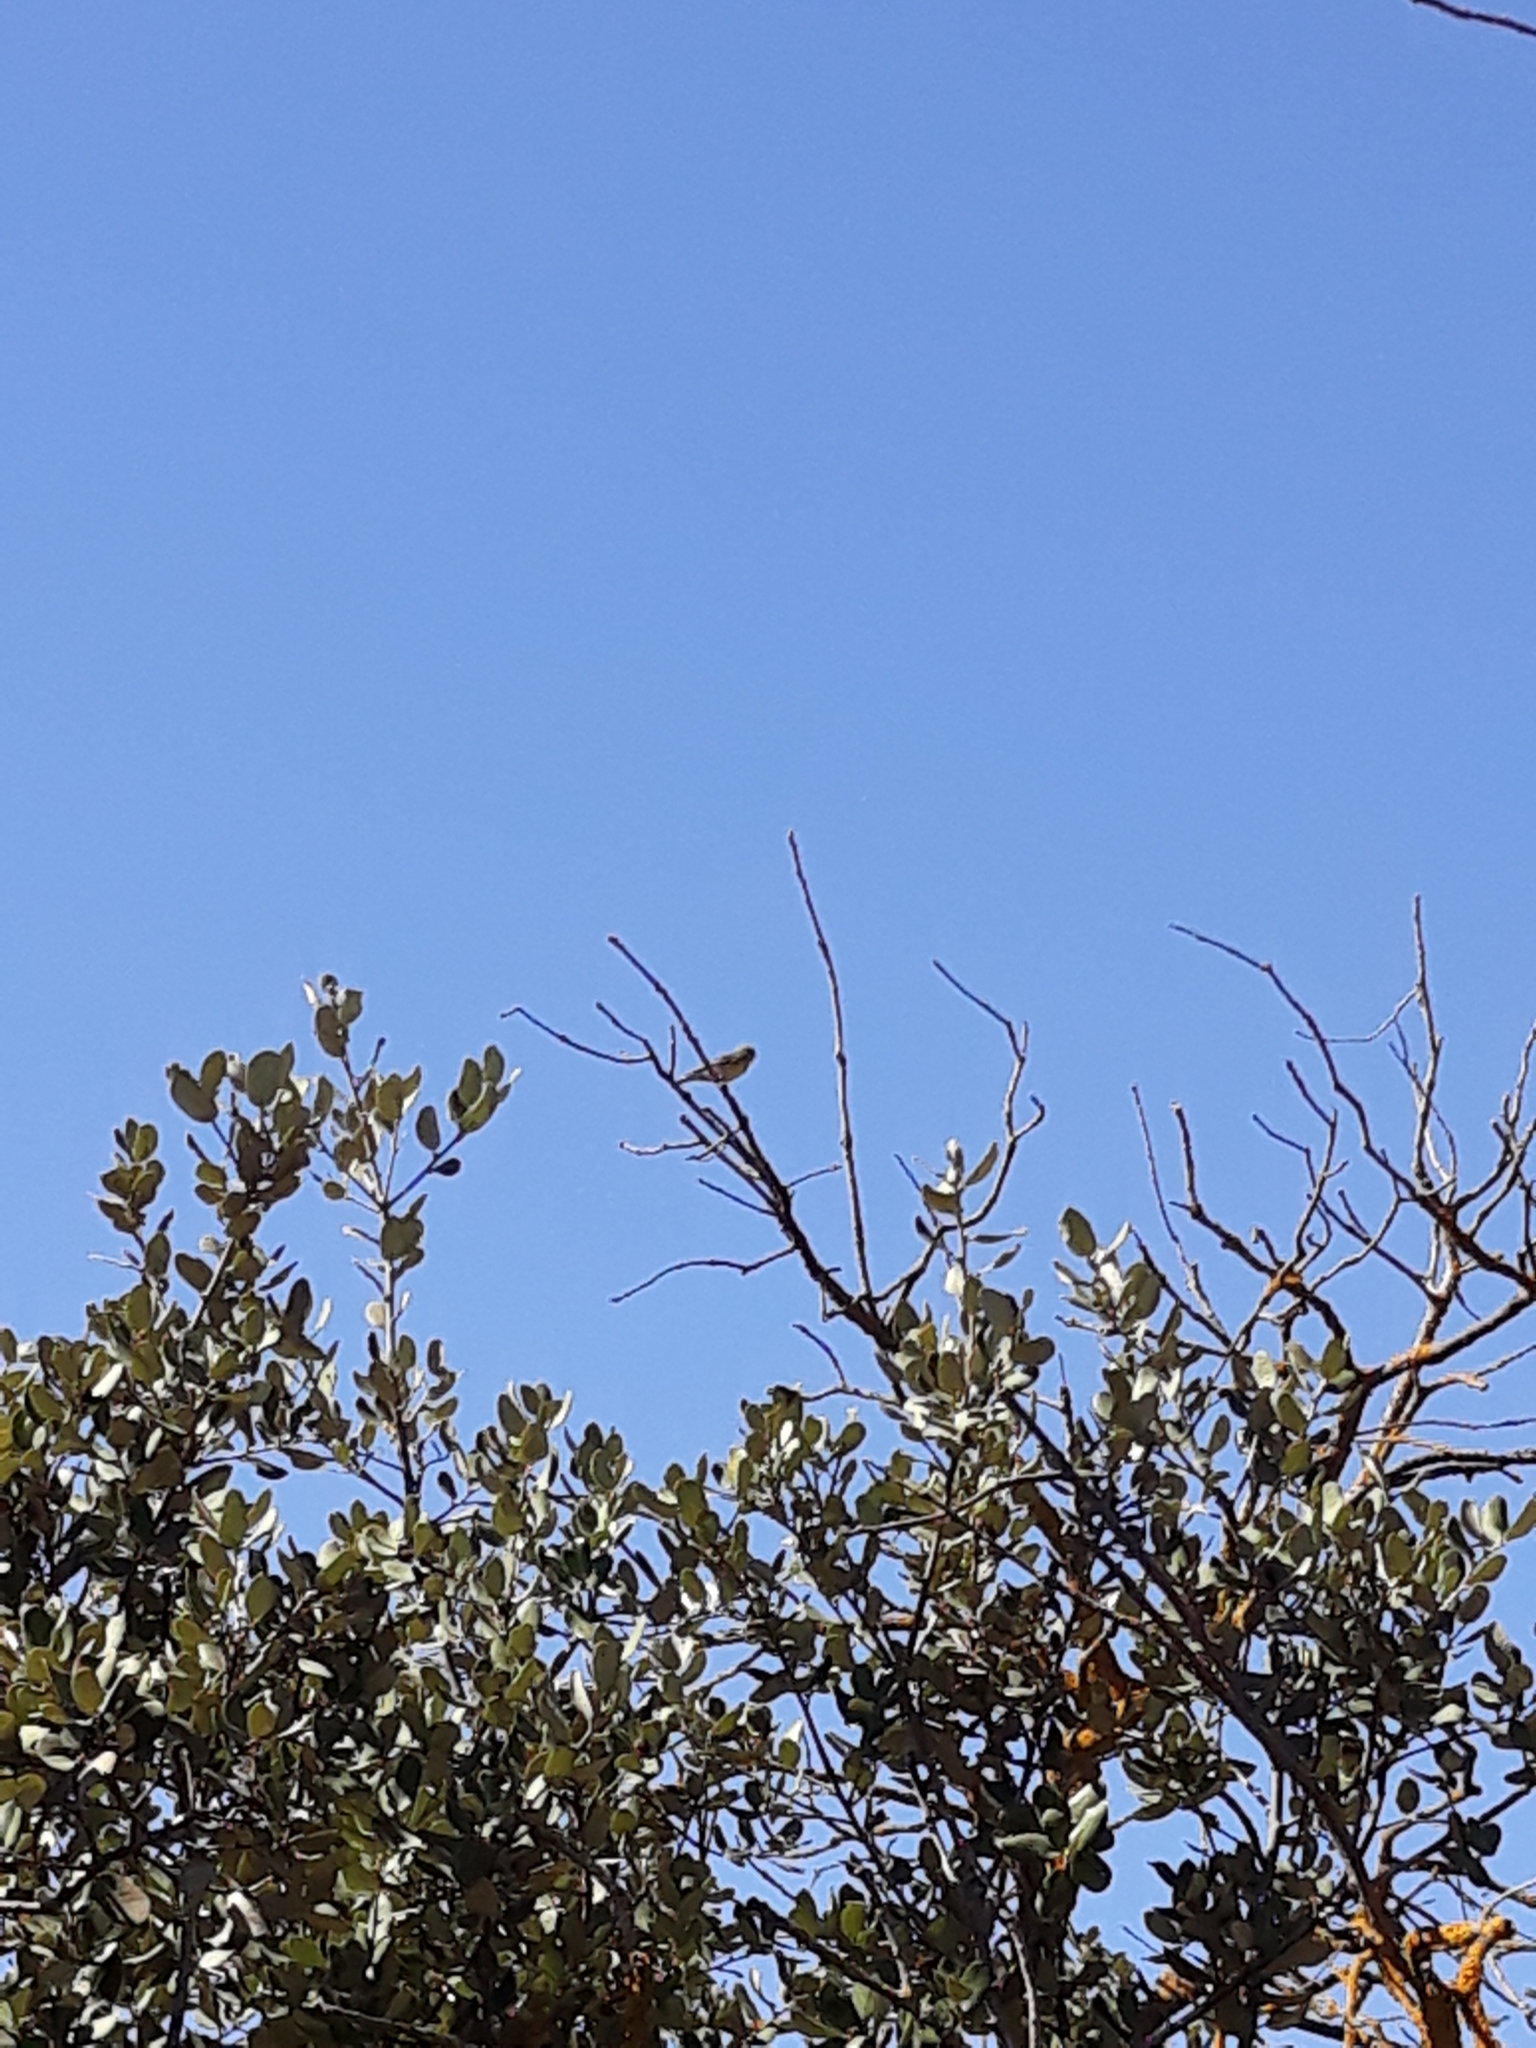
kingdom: Animalia
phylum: Chordata
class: Aves
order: Passeriformes
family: Fringillidae
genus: Serinus
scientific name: Serinus serinus
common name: European serin
